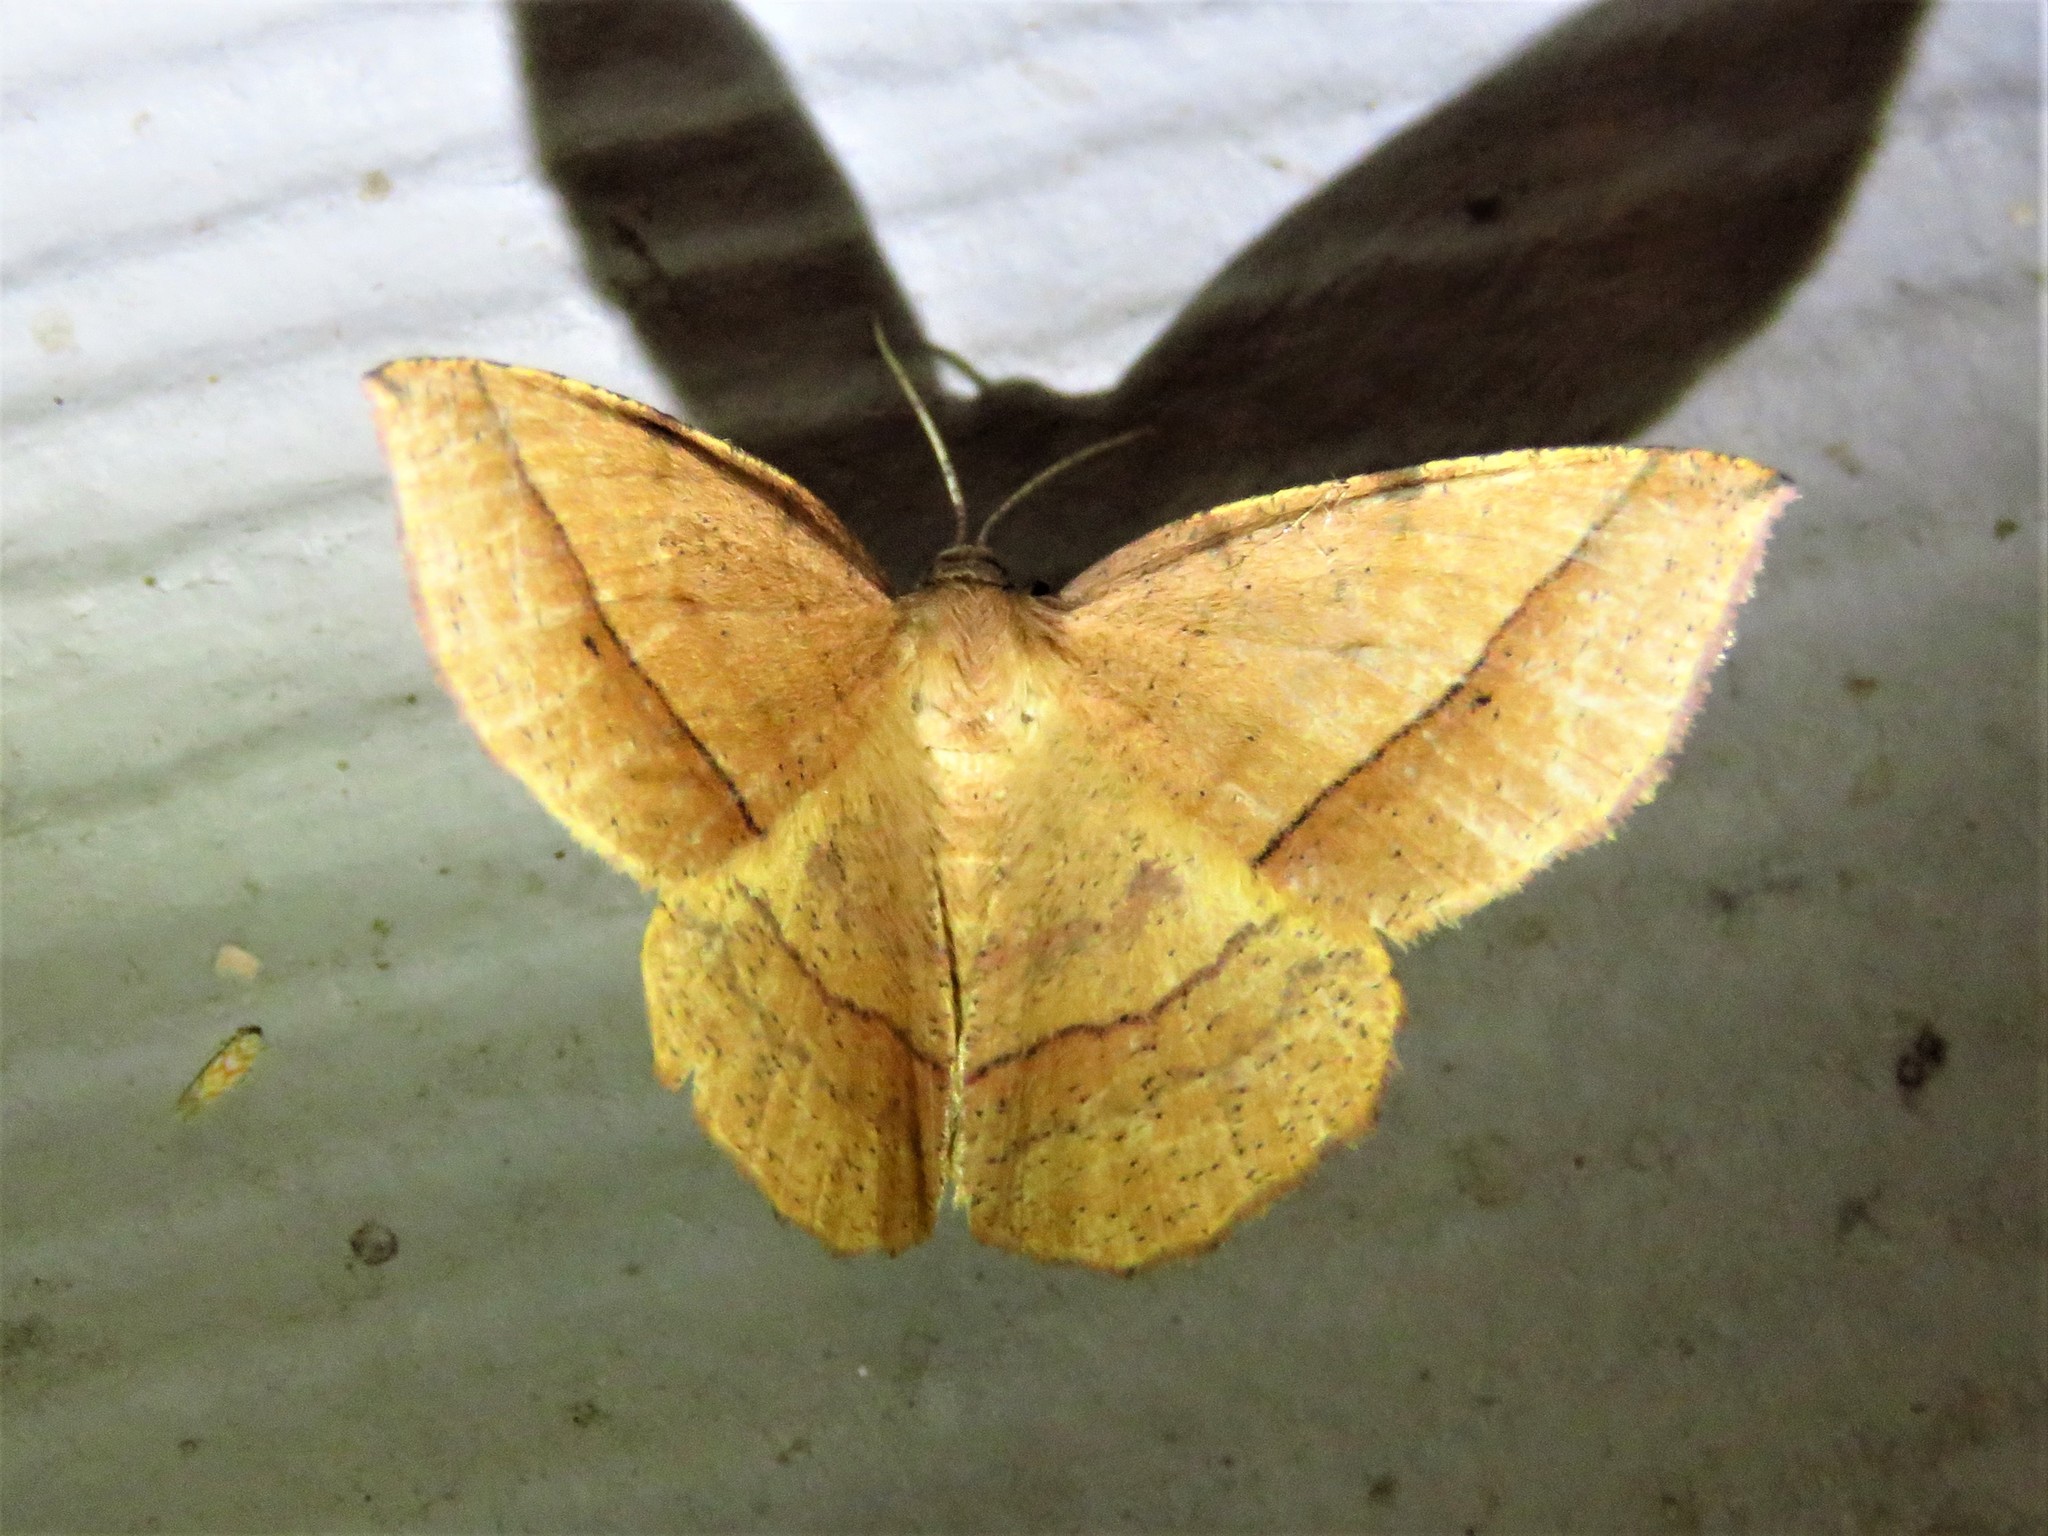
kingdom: Animalia
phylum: Arthropoda
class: Insecta
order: Lepidoptera
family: Geometridae
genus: Erastria
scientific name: Erastria cruentaria
